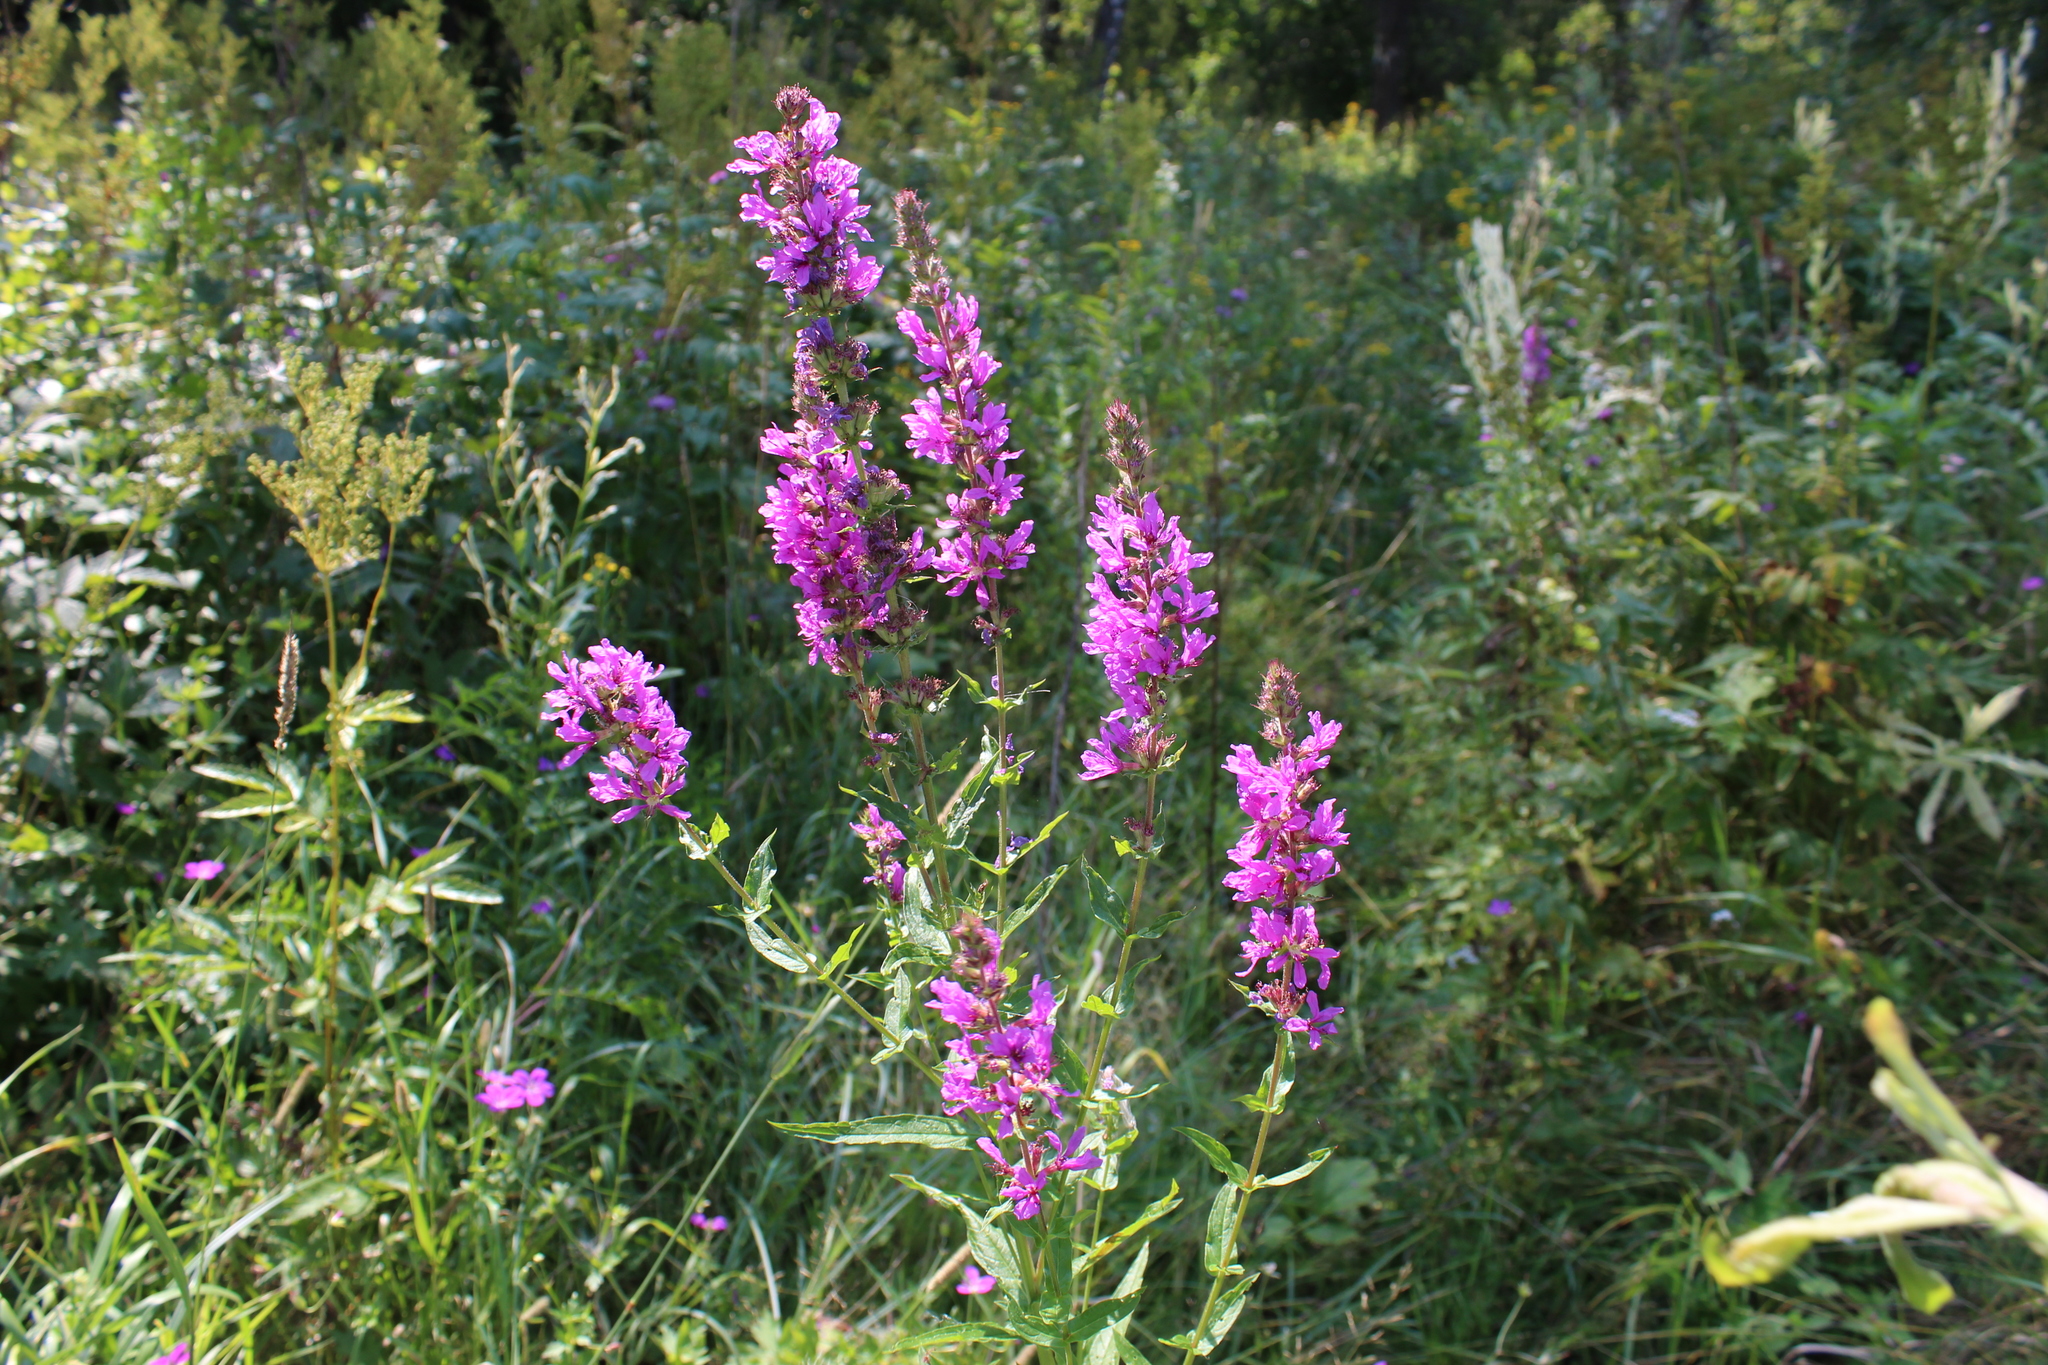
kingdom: Plantae
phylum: Tracheophyta
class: Magnoliopsida
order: Myrtales
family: Lythraceae
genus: Lythrum
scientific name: Lythrum salicaria
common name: Purple loosestrife
